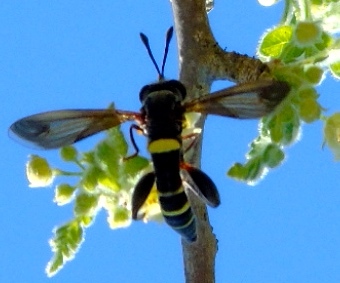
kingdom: Animalia
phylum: Arthropoda
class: Insecta
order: Diptera
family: Mydidae
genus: Mydas
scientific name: Mydas hardyi
